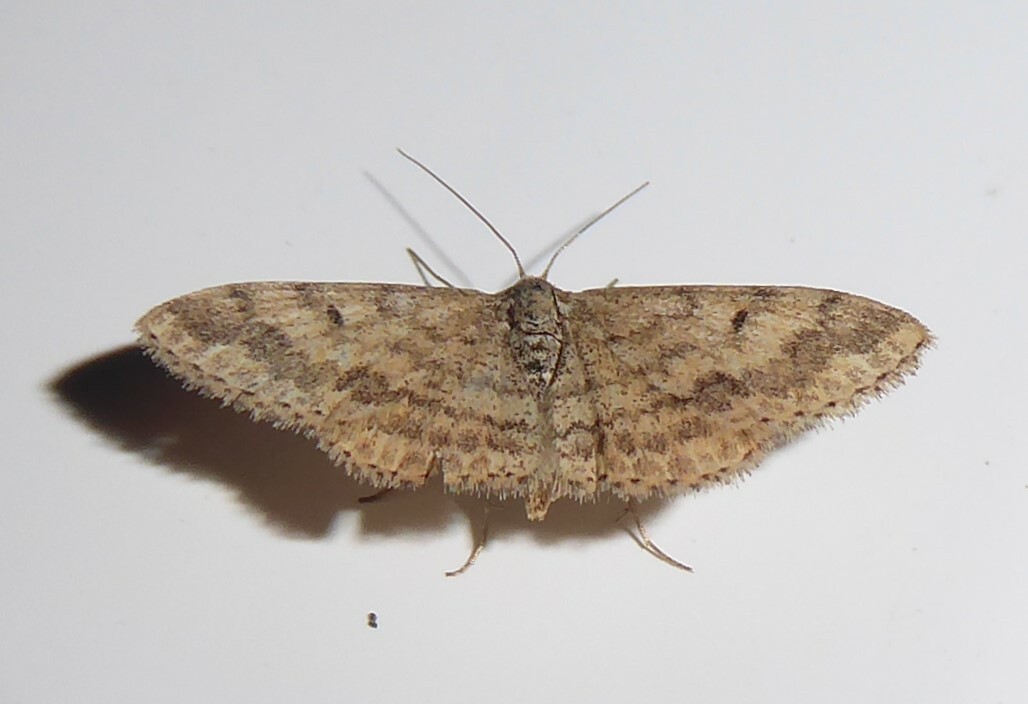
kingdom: Animalia
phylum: Arthropoda
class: Insecta
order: Lepidoptera
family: Geometridae
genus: Scopula
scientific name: Scopula rubraria
